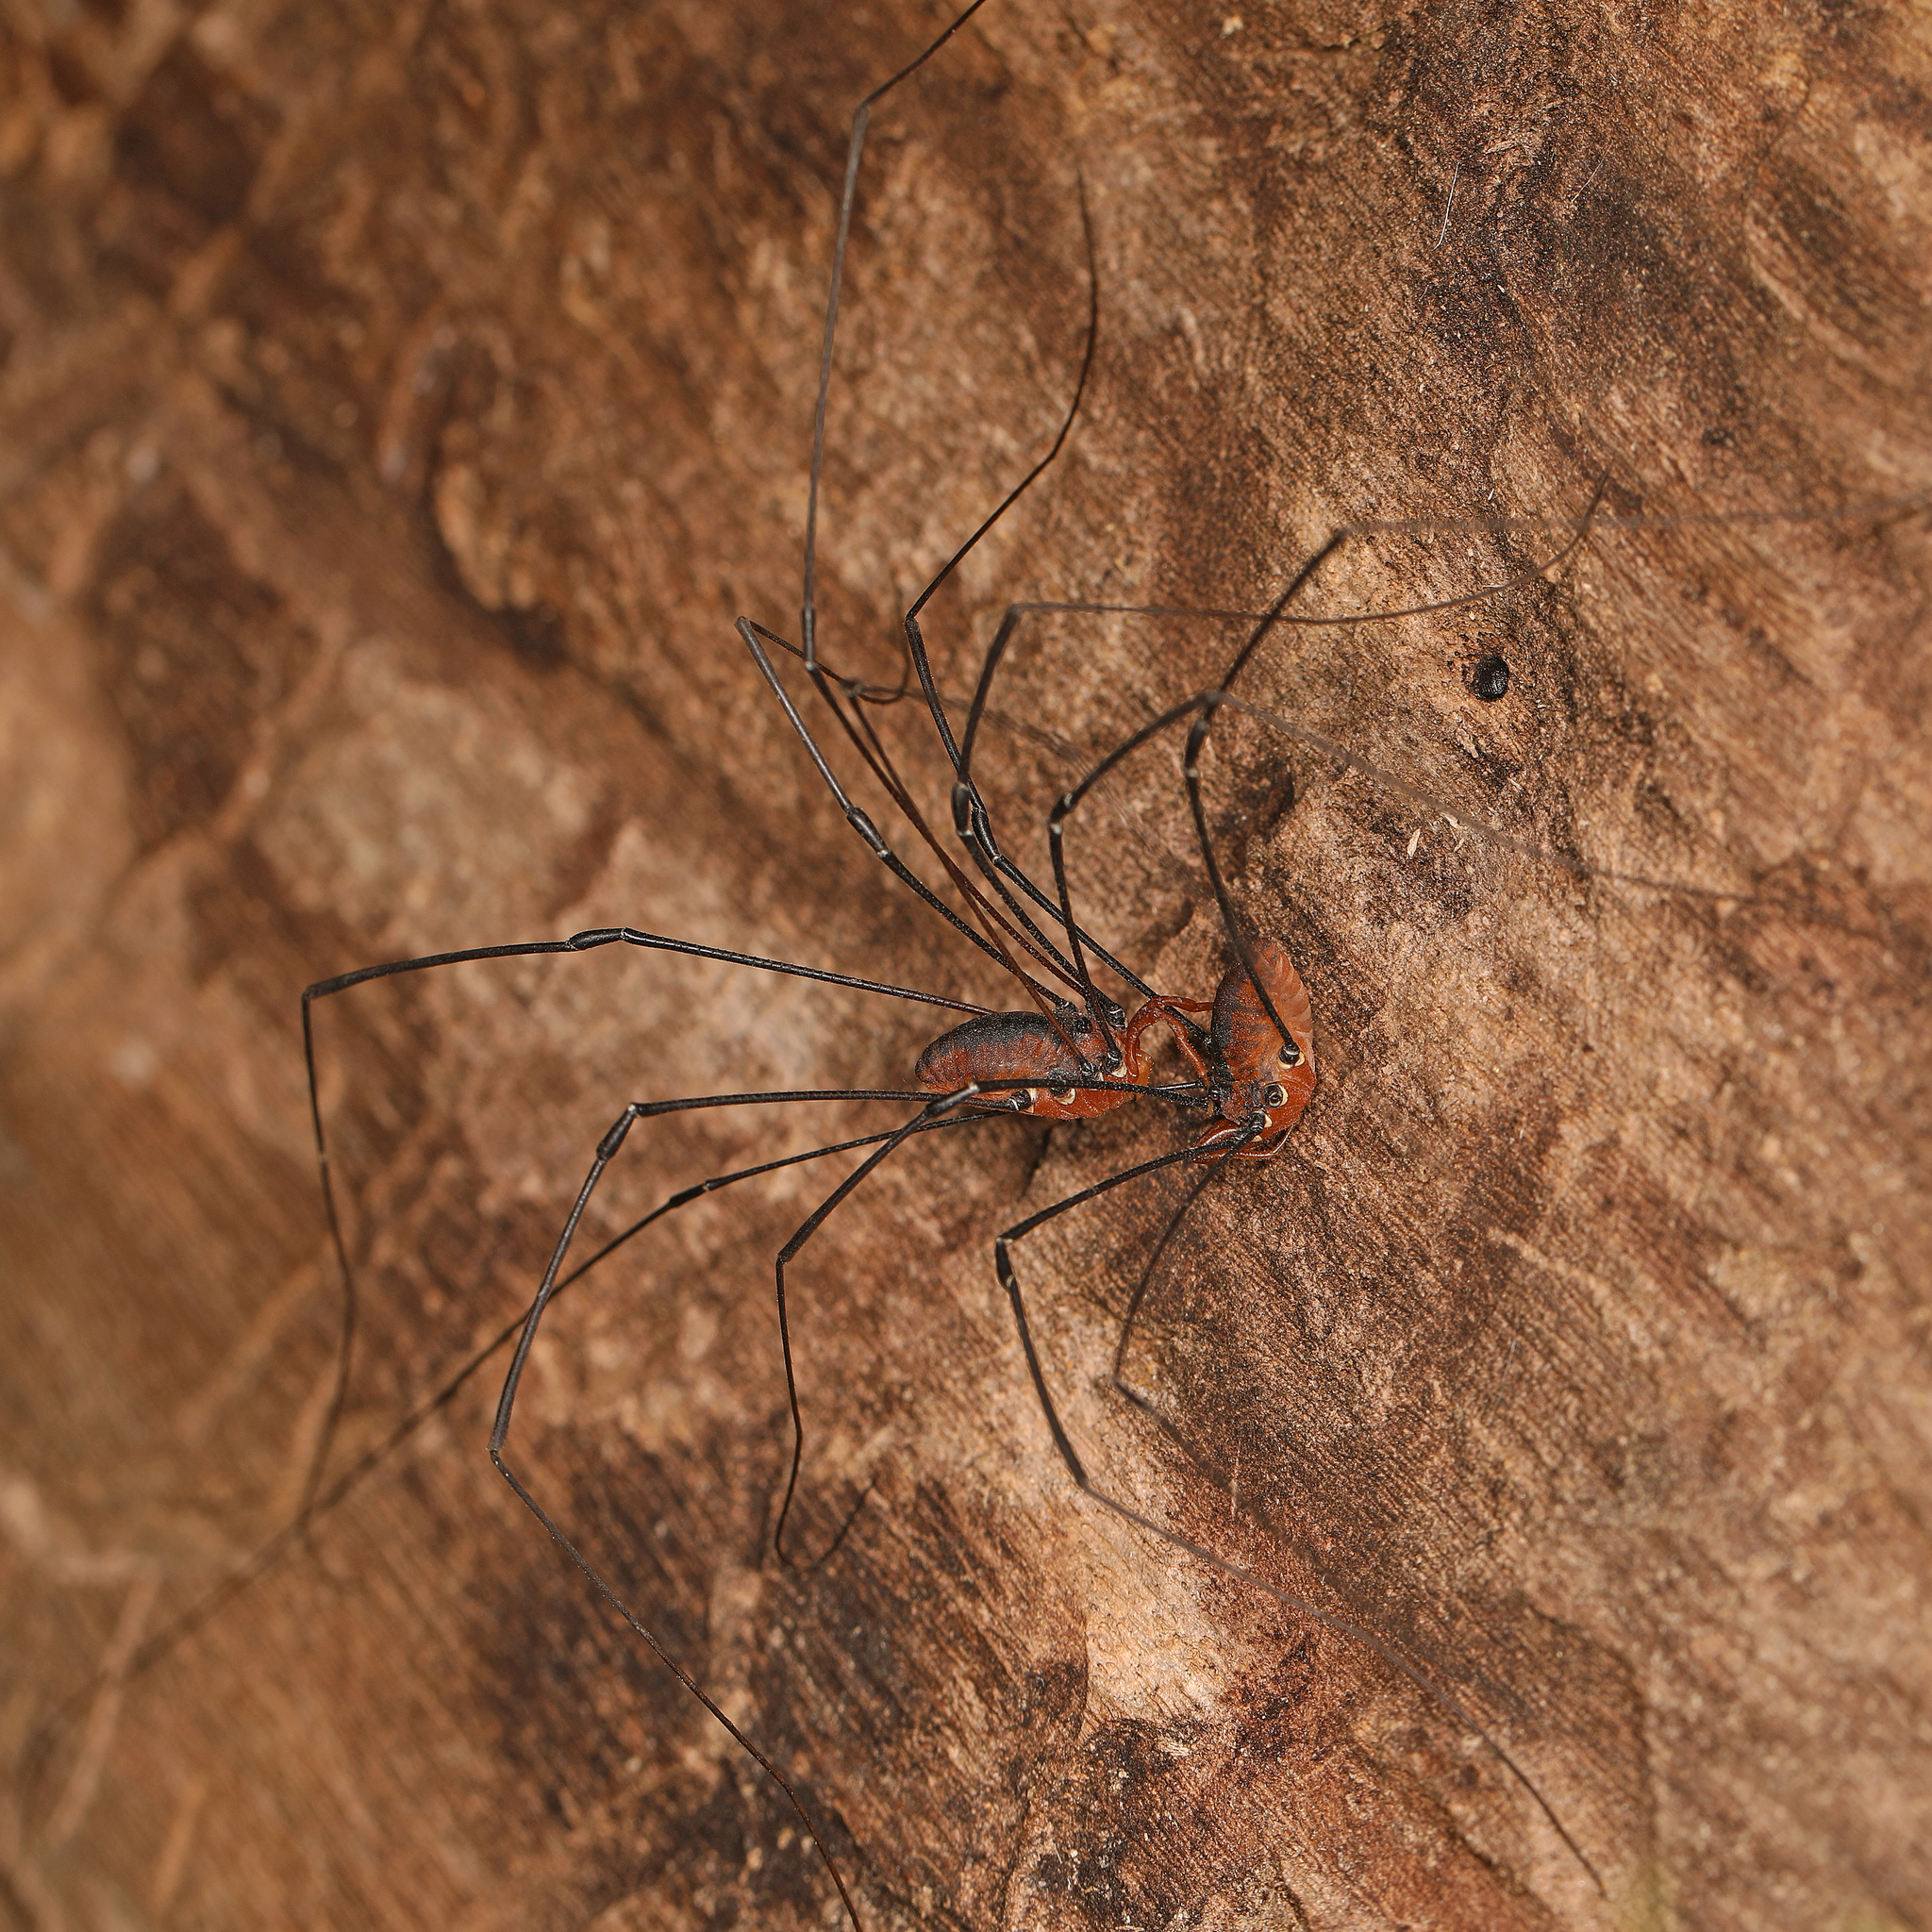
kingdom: Animalia
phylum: Arthropoda
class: Arachnida
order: Opiliones
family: Sclerosomatidae
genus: Leiobunum
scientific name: Leiobunum vittatum
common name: Eastern harvestman
